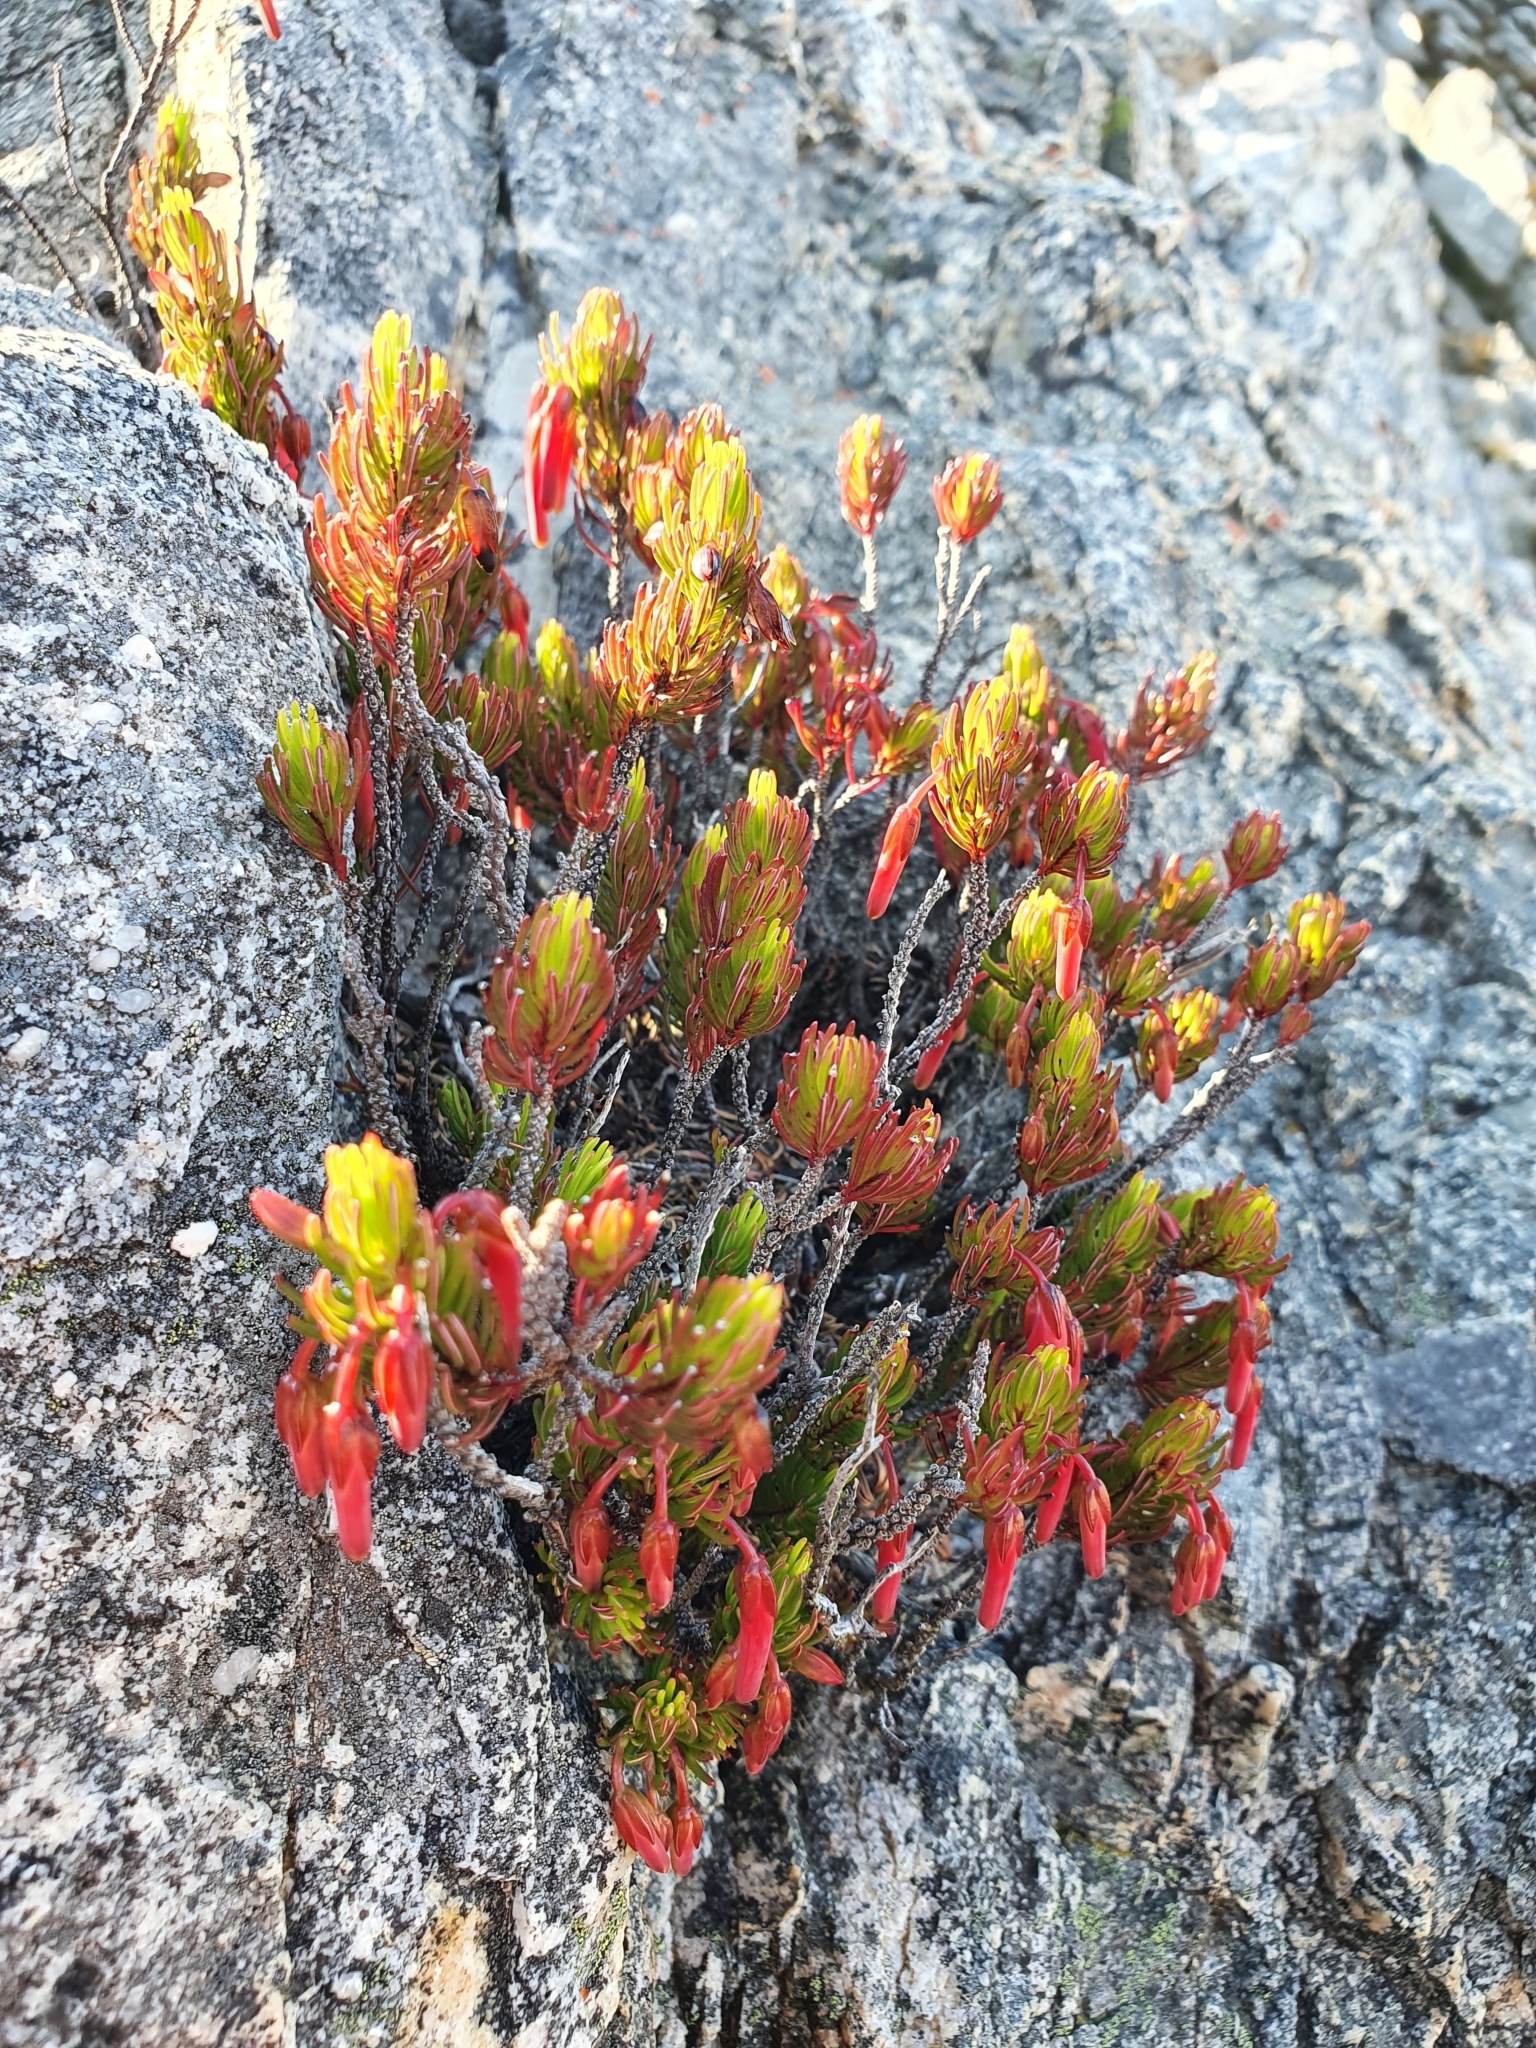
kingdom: Plantae
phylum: Tracheophyta
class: Magnoliopsida
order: Ericales
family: Ericaceae
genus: Erica
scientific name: Erica plukenetii
